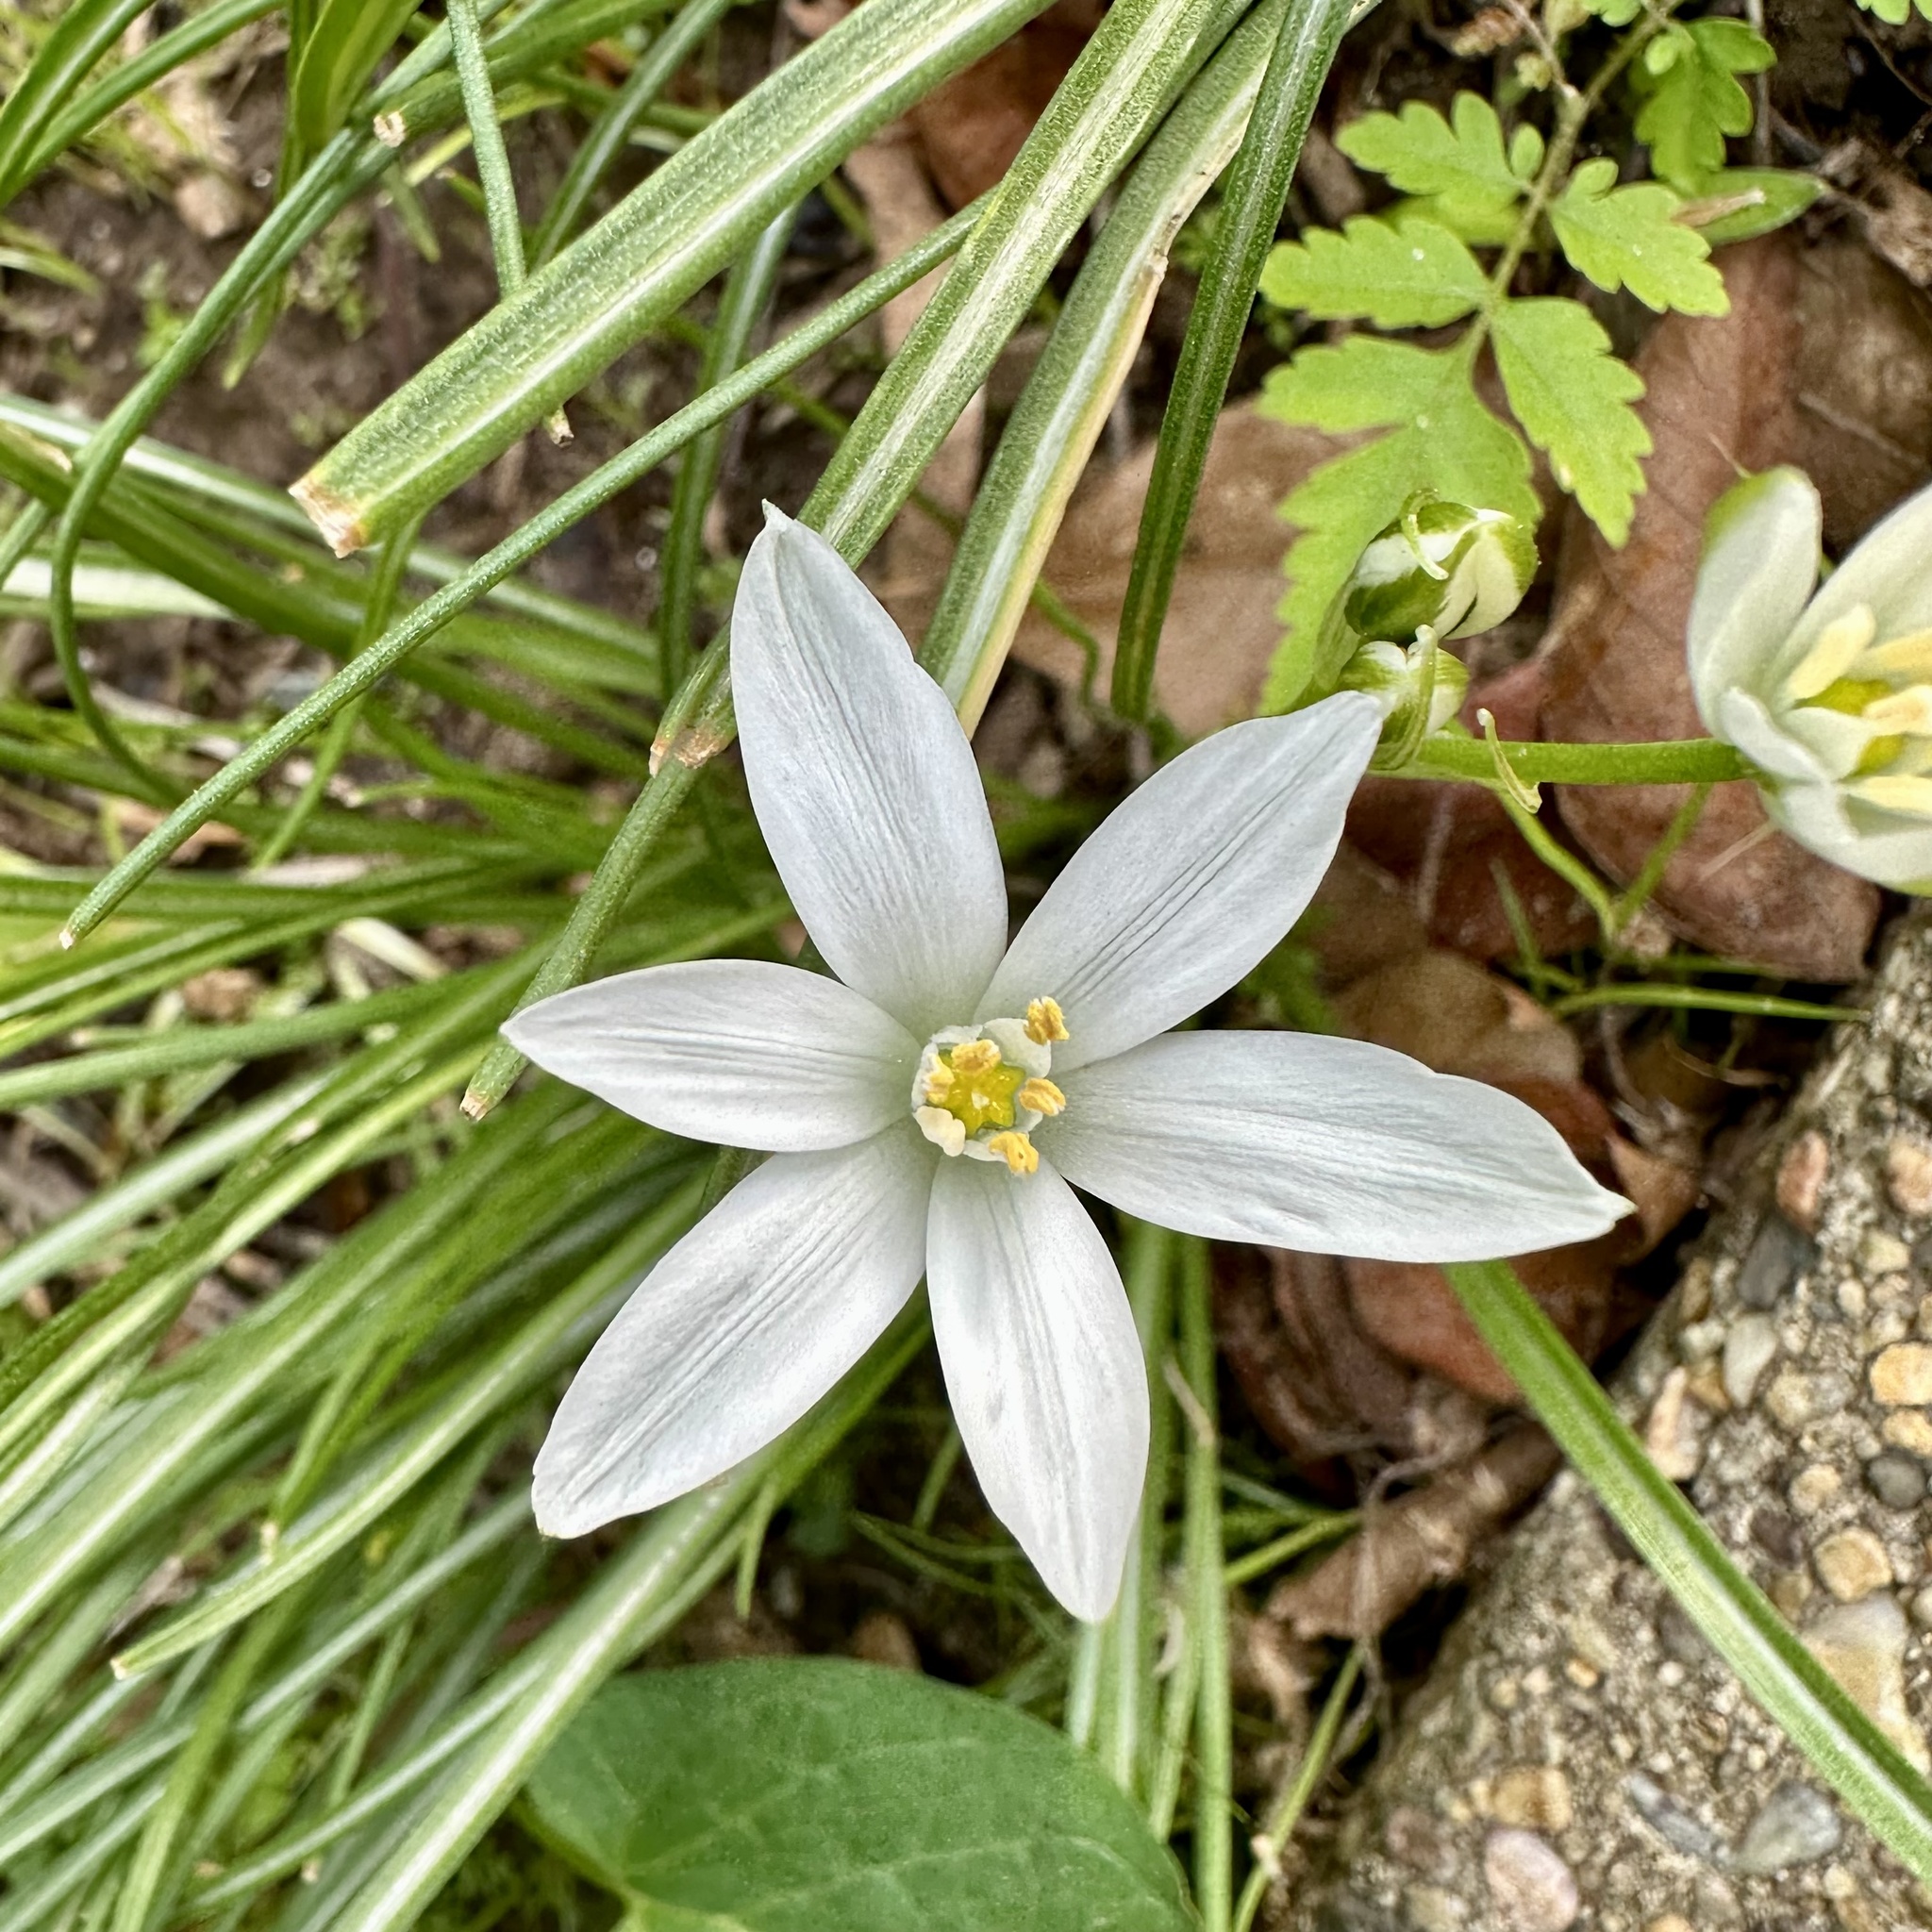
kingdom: Plantae
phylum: Tracheophyta
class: Liliopsida
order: Asparagales
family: Asparagaceae
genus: Ornithogalum
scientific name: Ornithogalum umbellatum
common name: Garden star-of-bethlehem
